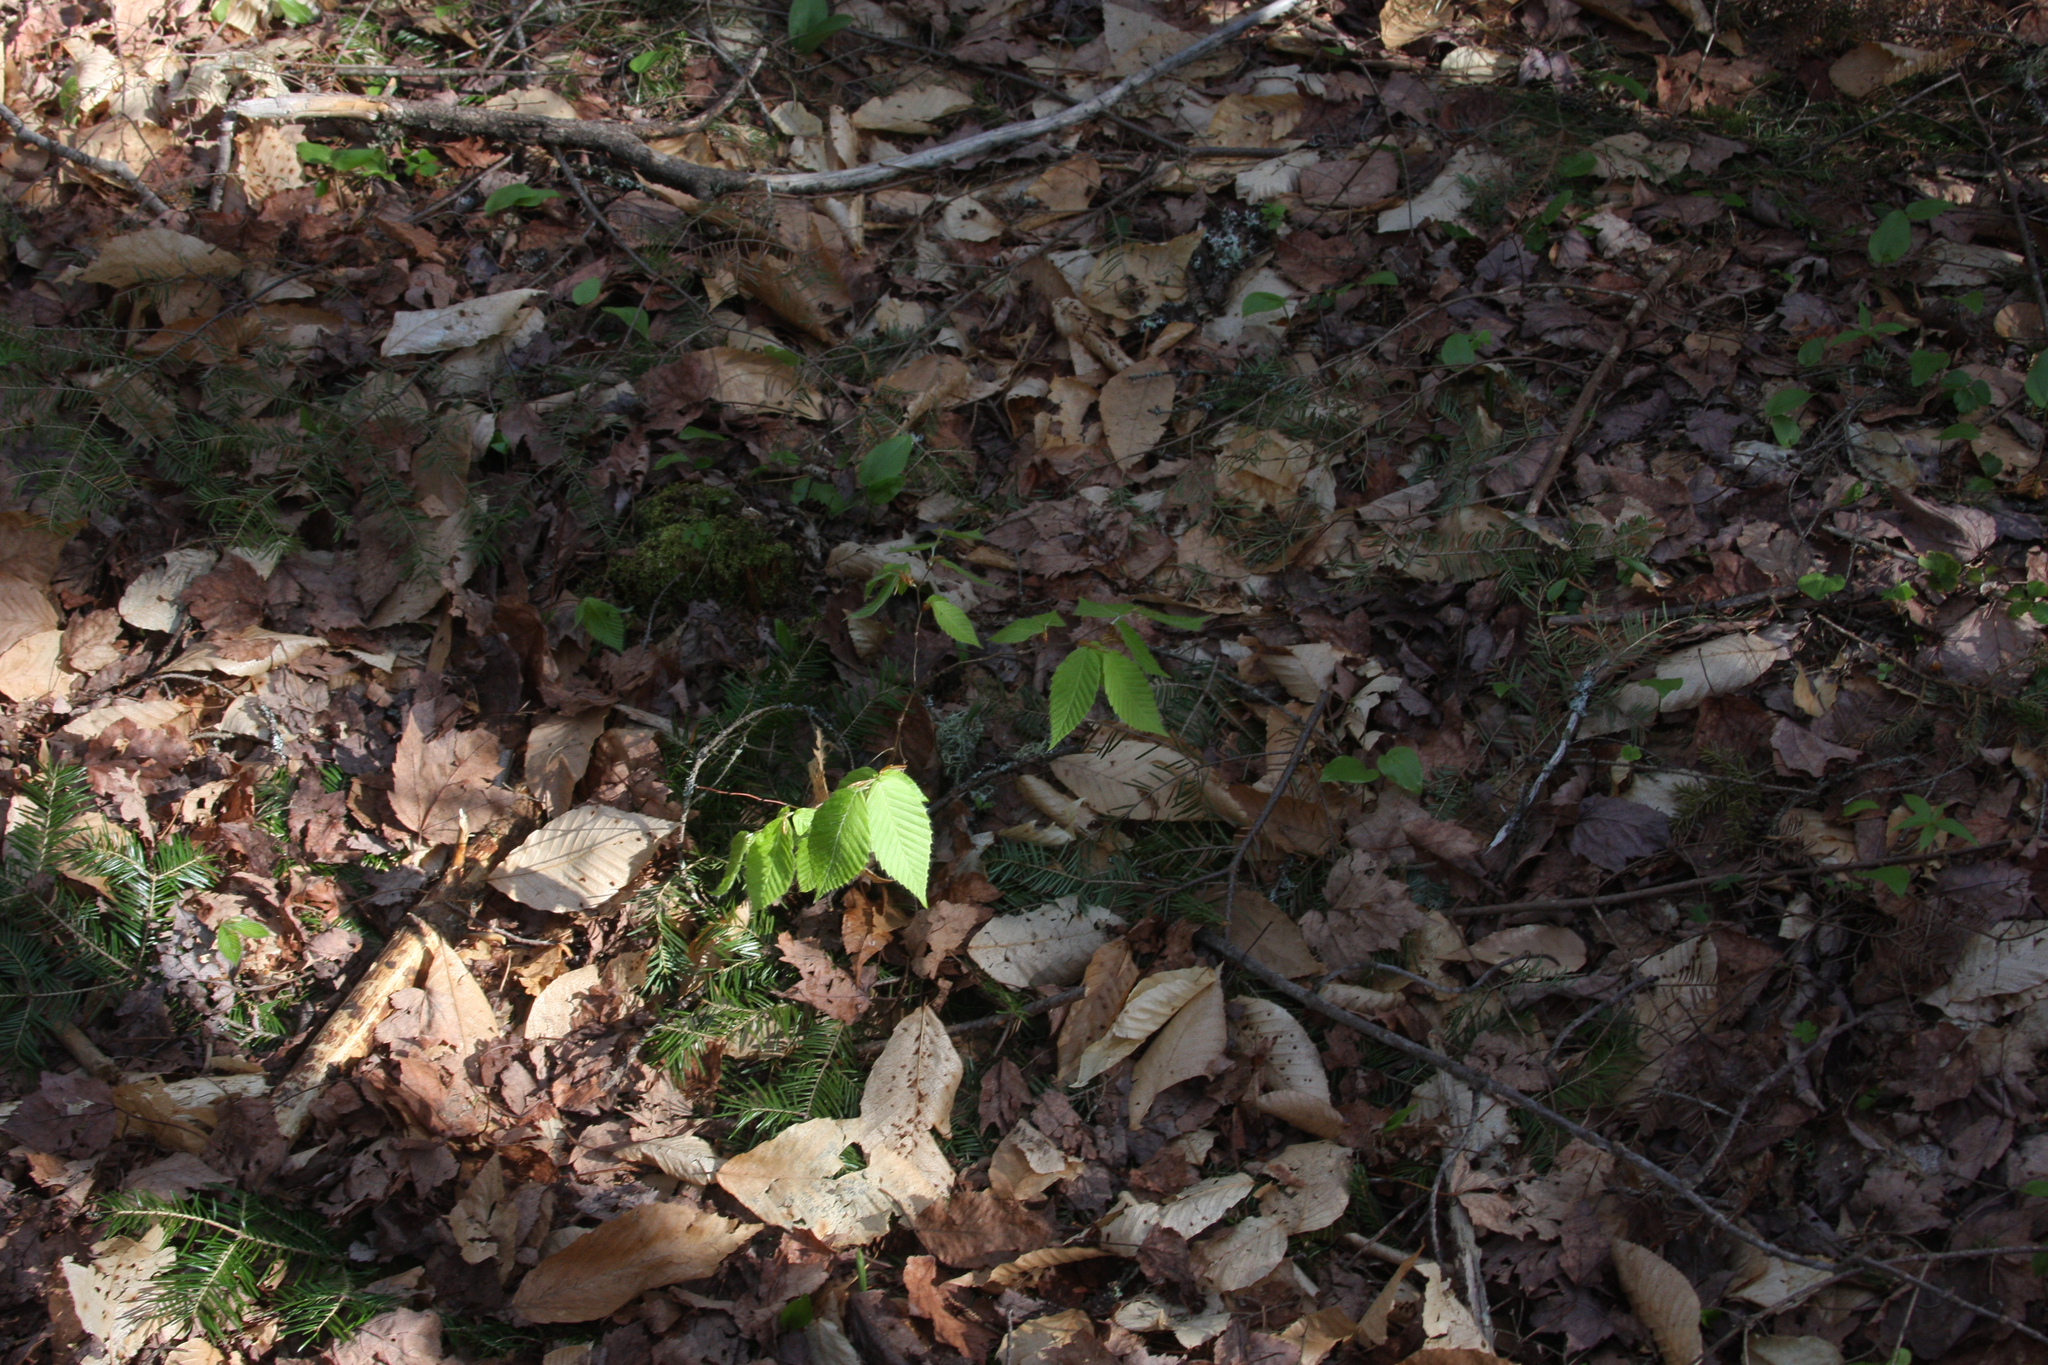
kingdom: Plantae
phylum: Tracheophyta
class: Magnoliopsida
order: Fagales
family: Fagaceae
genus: Fagus
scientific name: Fagus grandifolia
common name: American beech
